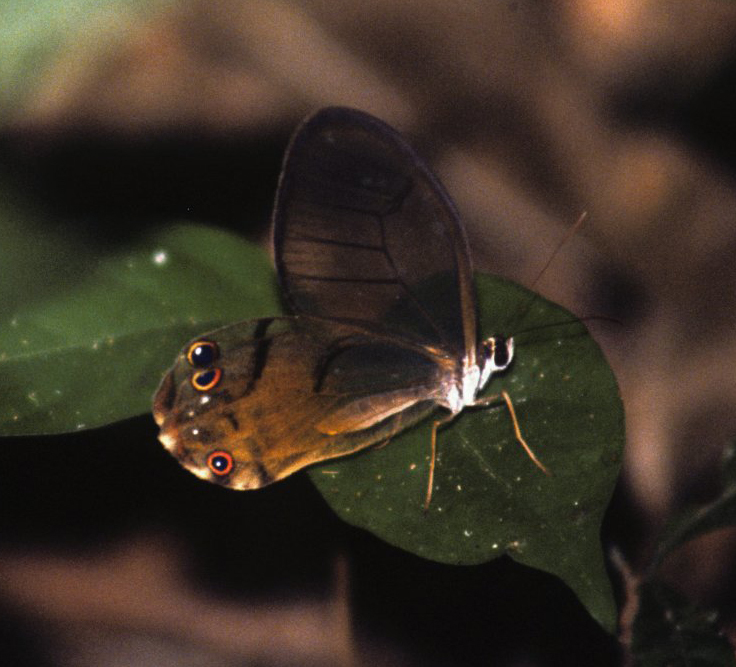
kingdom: Animalia
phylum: Arthropoda
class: Insecta
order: Lepidoptera
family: Nymphalidae
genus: Haetera
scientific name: Haetera piera
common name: Amber phantom
